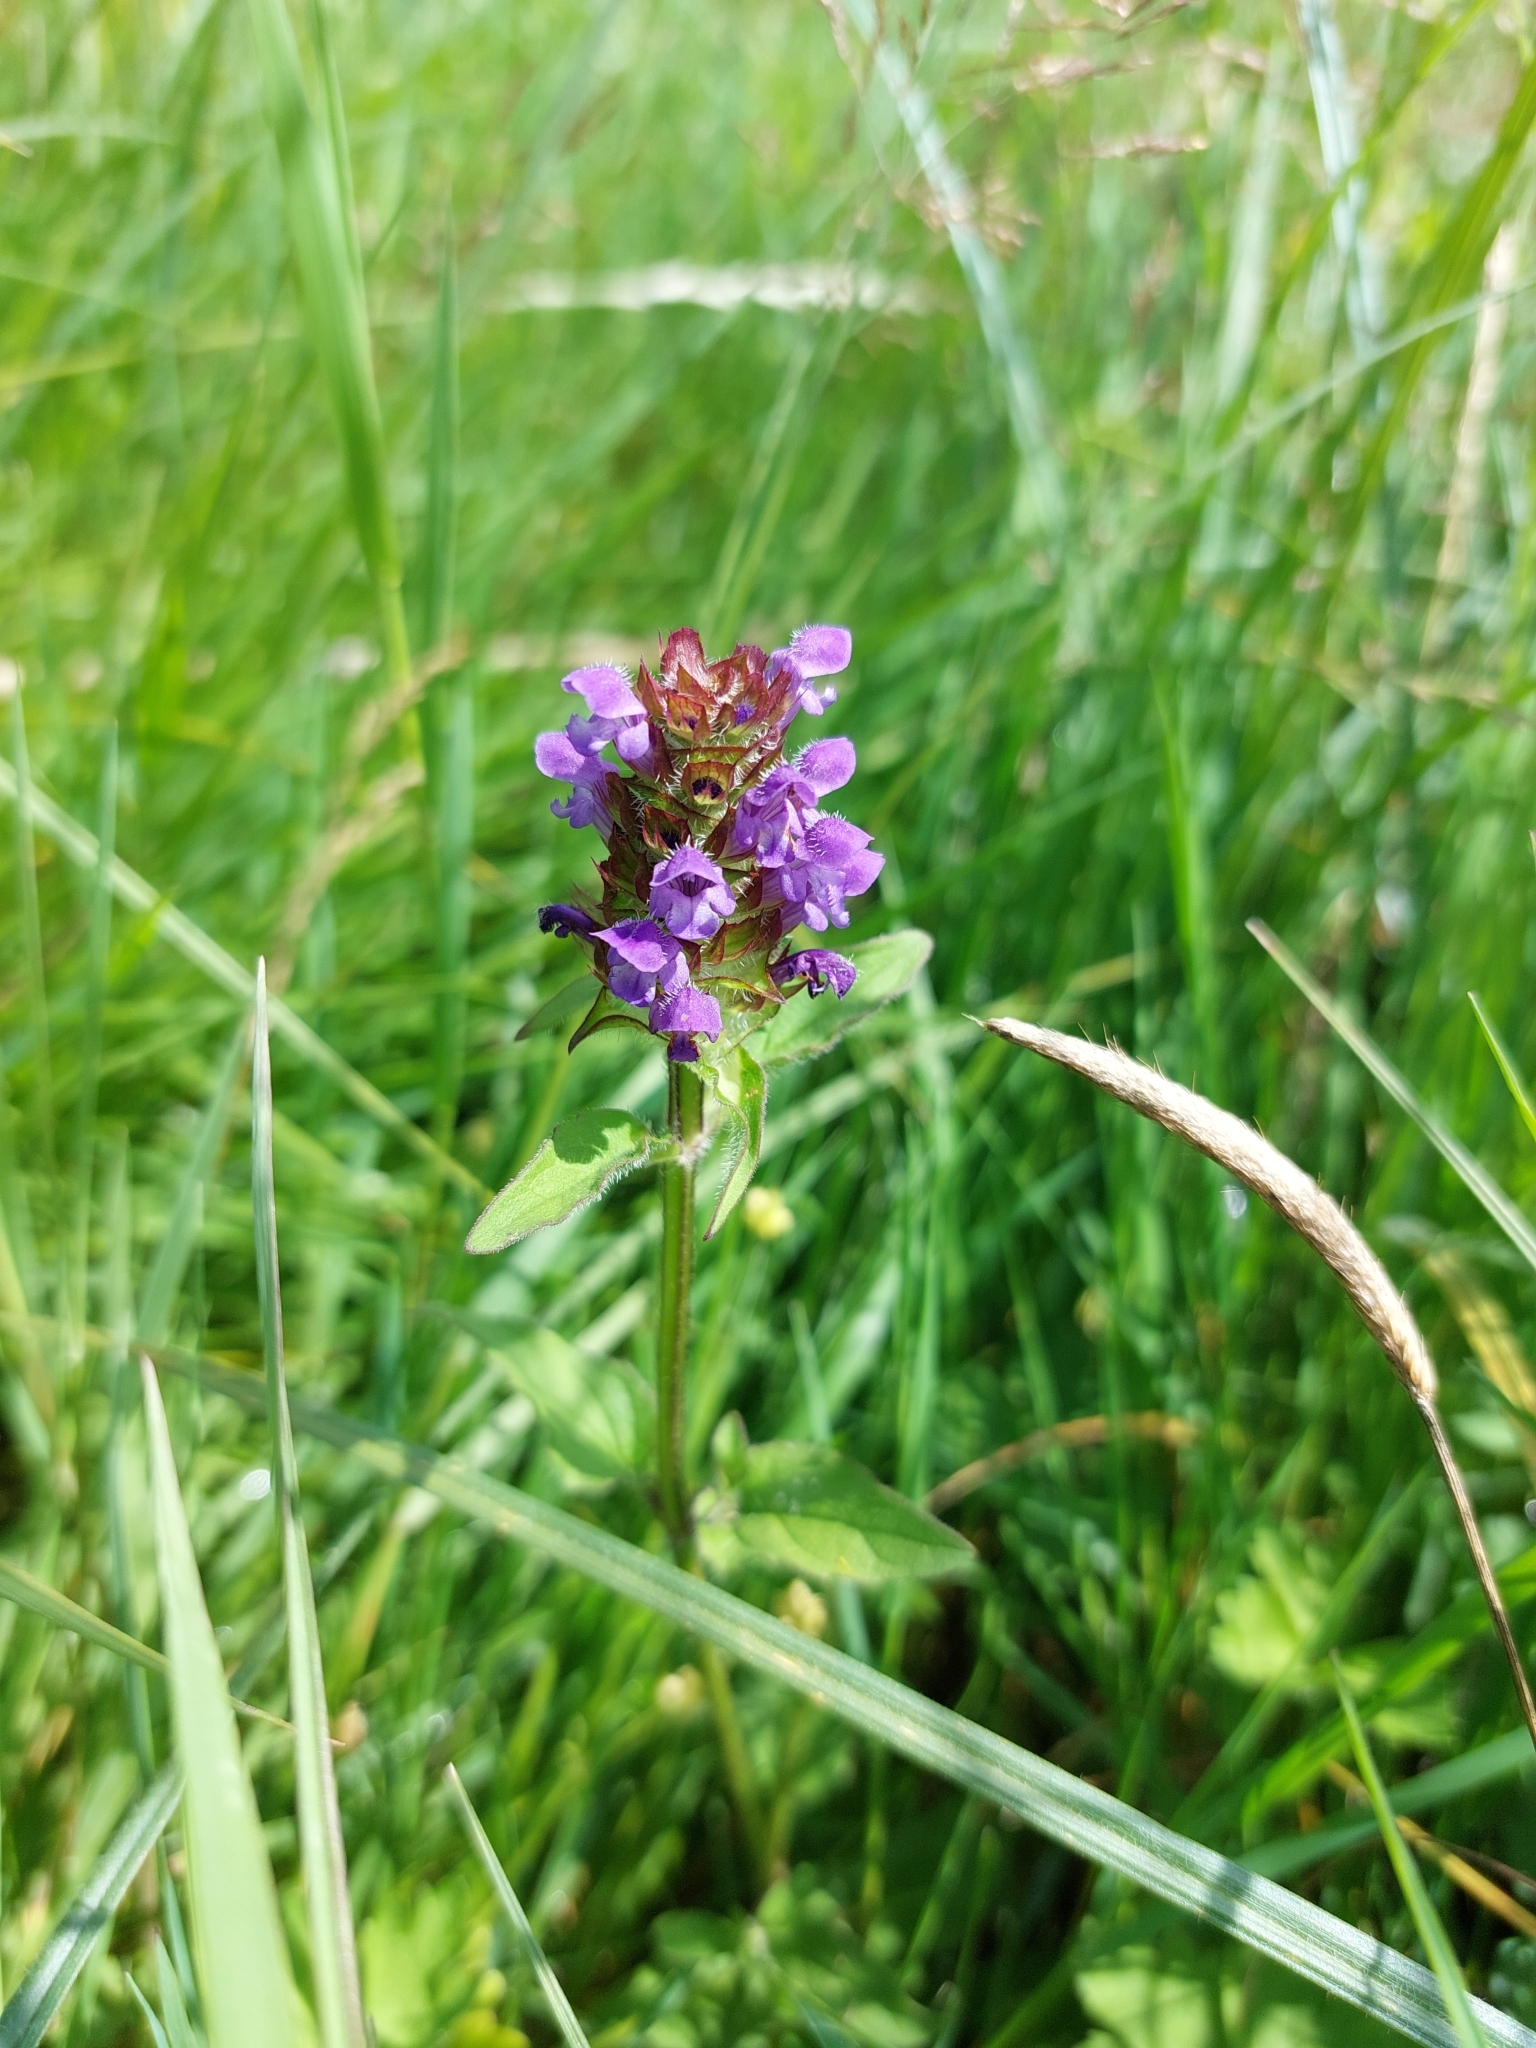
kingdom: Plantae
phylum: Tracheophyta
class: Magnoliopsida
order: Lamiales
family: Lamiaceae
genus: Prunella
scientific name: Prunella vulgaris
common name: Heal-all
